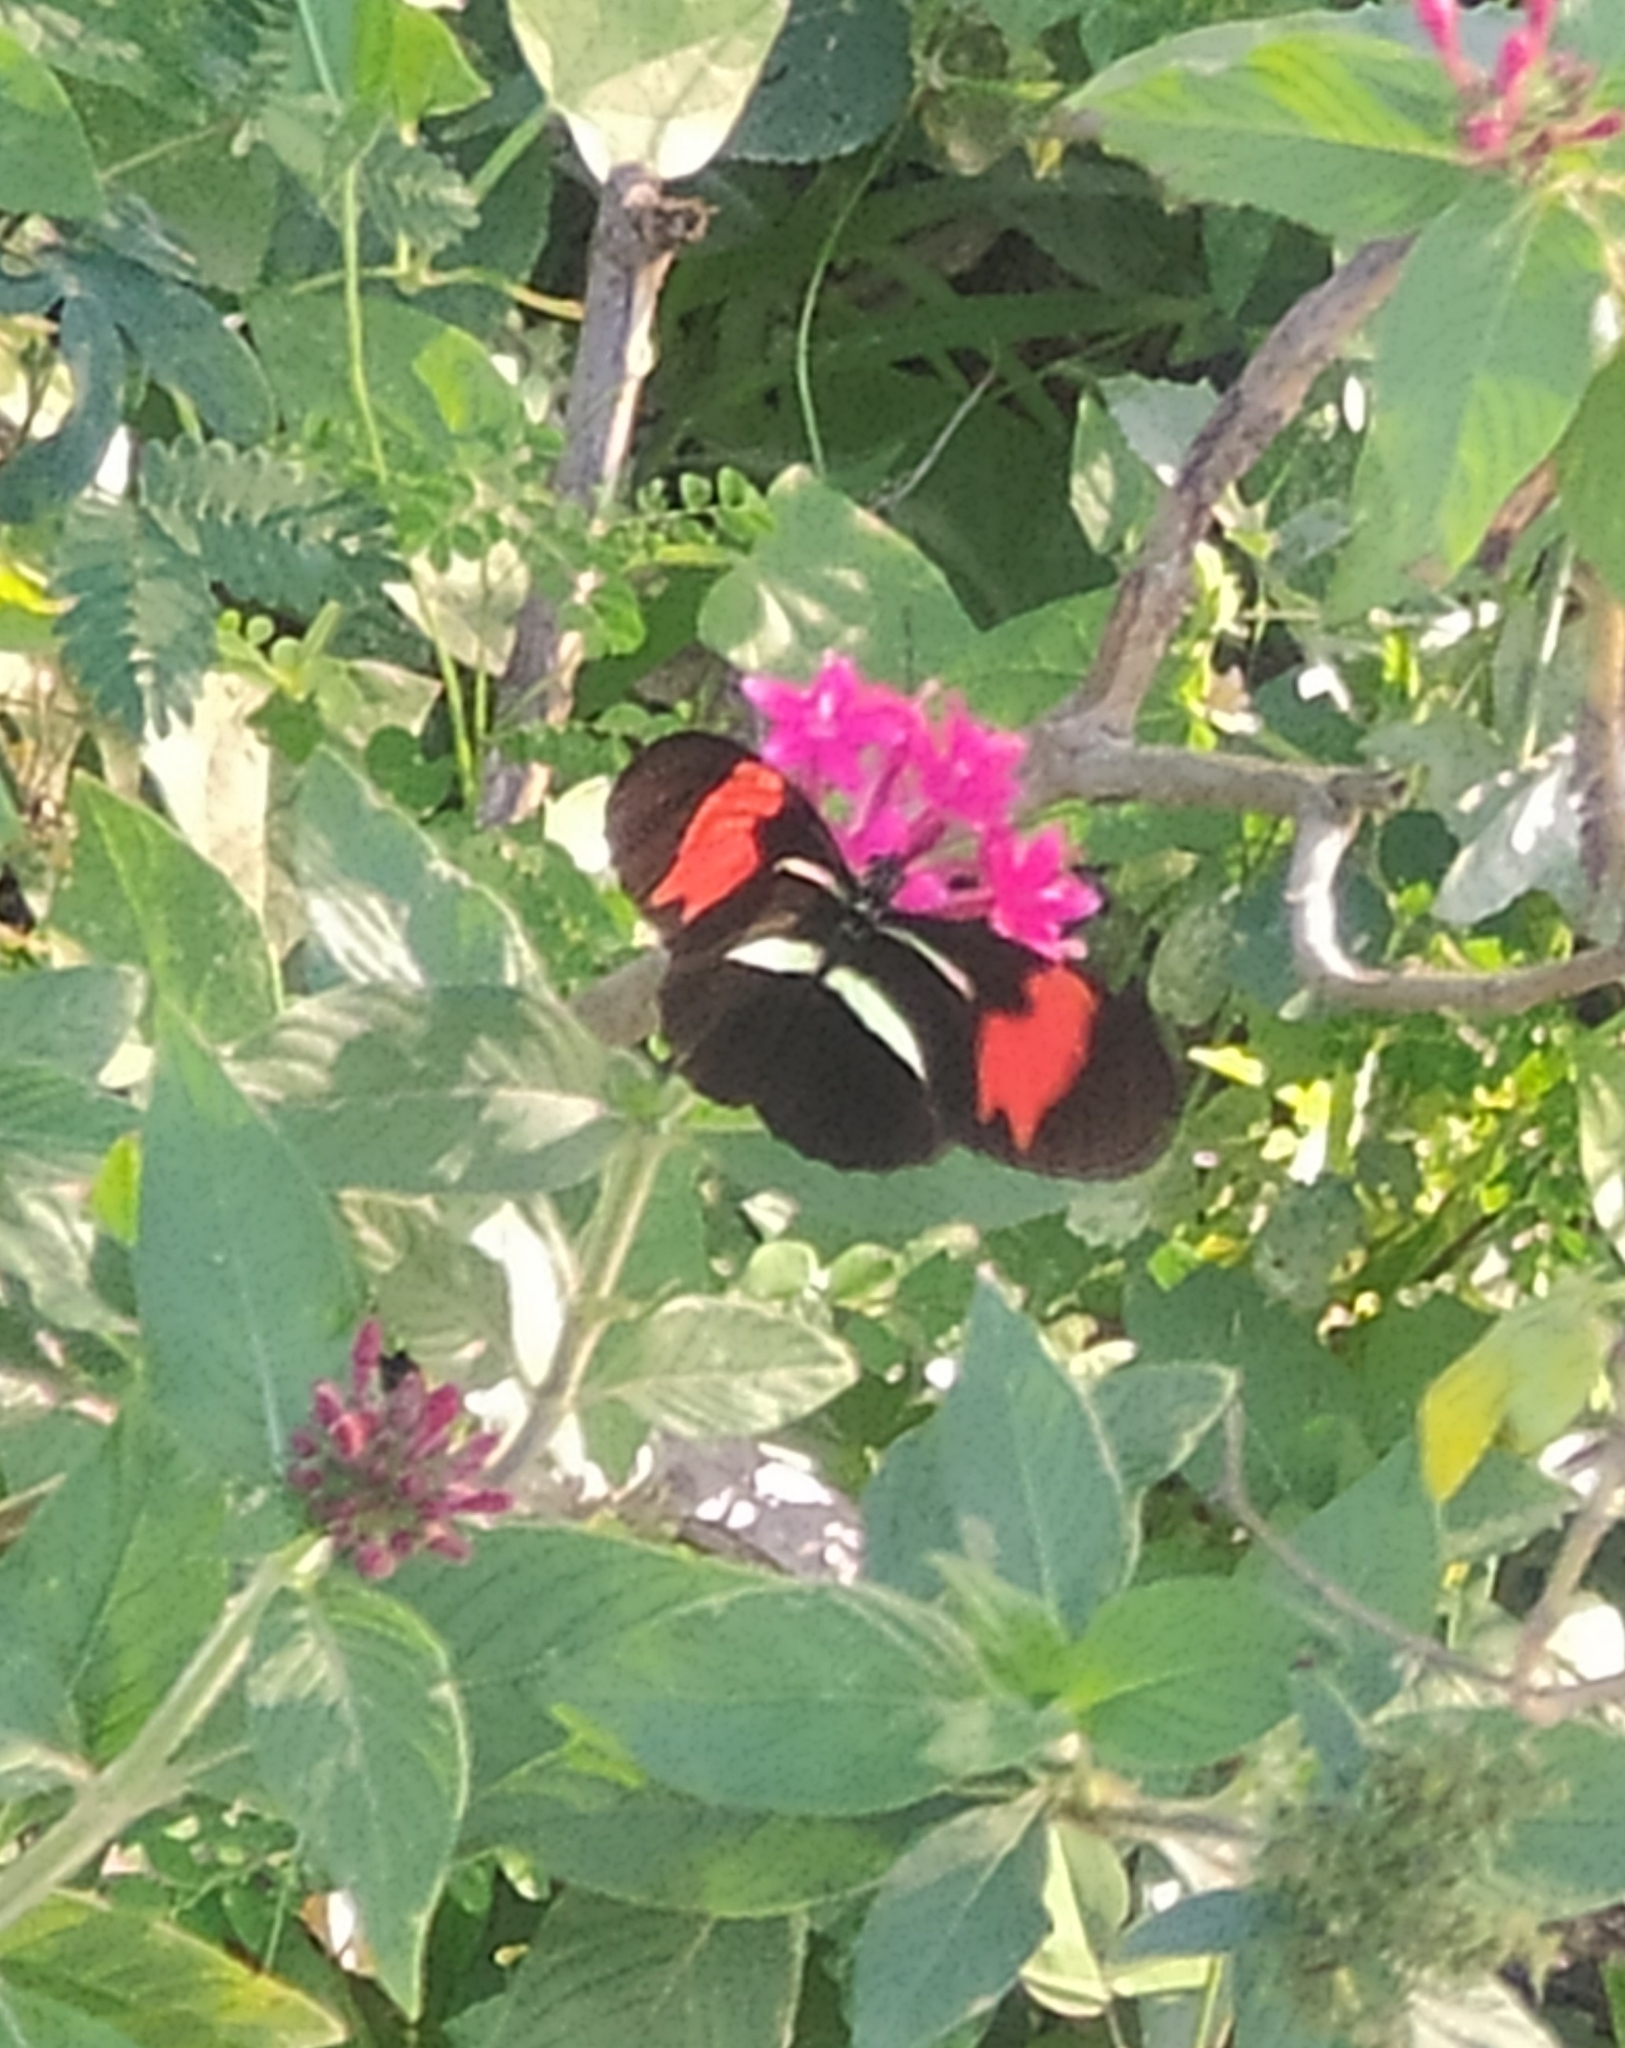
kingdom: Animalia
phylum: Arthropoda
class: Insecta
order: Lepidoptera
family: Nymphalidae
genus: Heliconius
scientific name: Heliconius erato
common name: Common patch longwing
